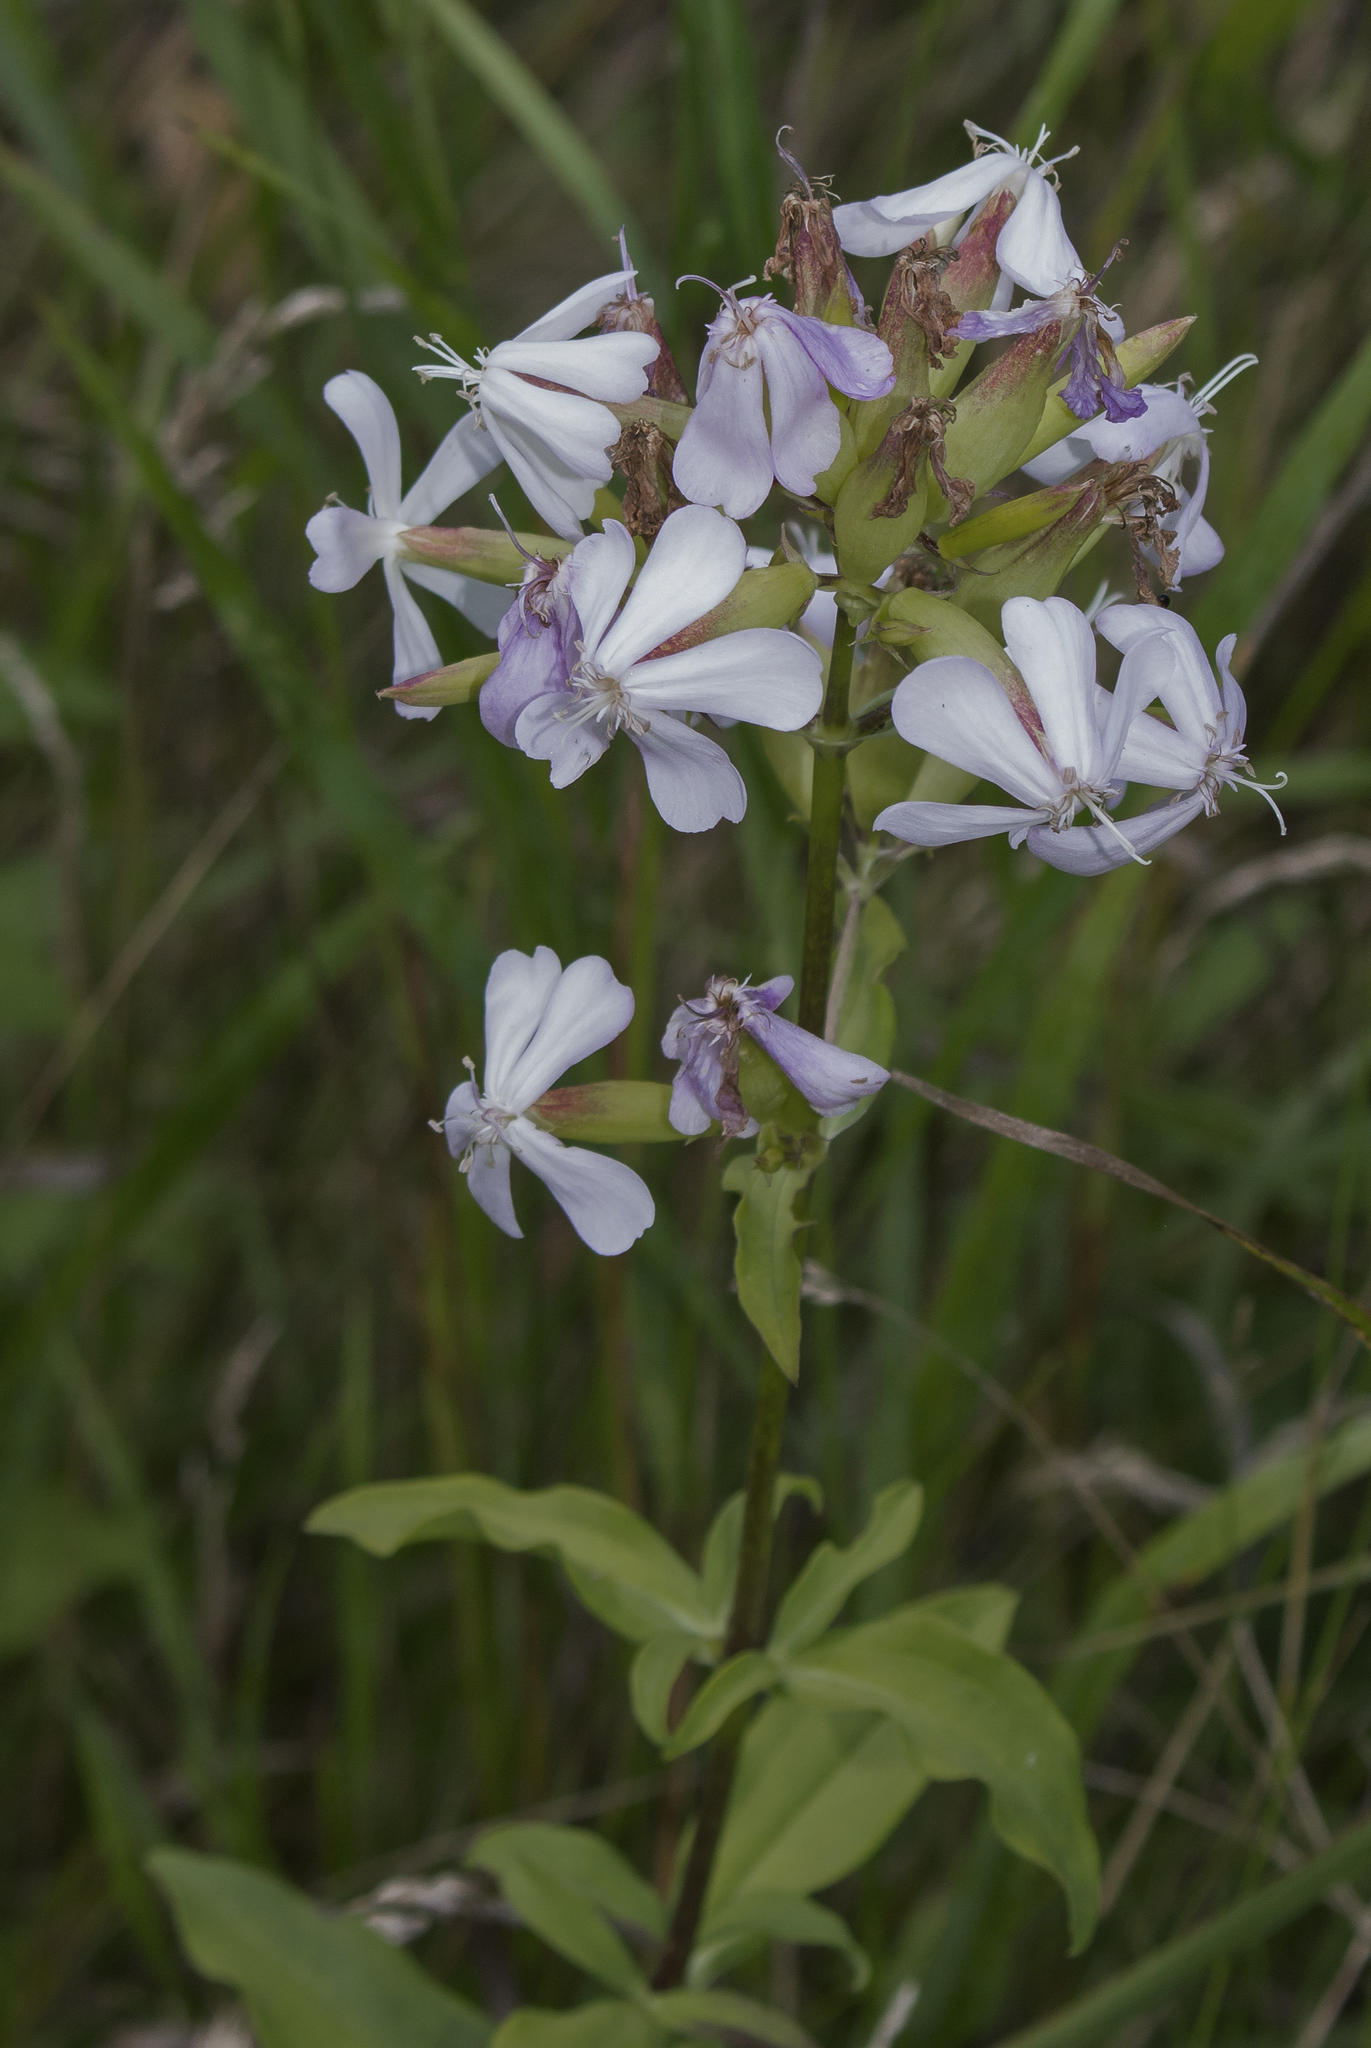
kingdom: Plantae
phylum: Tracheophyta
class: Magnoliopsida
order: Caryophyllales
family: Caryophyllaceae
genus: Saponaria
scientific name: Saponaria officinalis
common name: Soapwort
